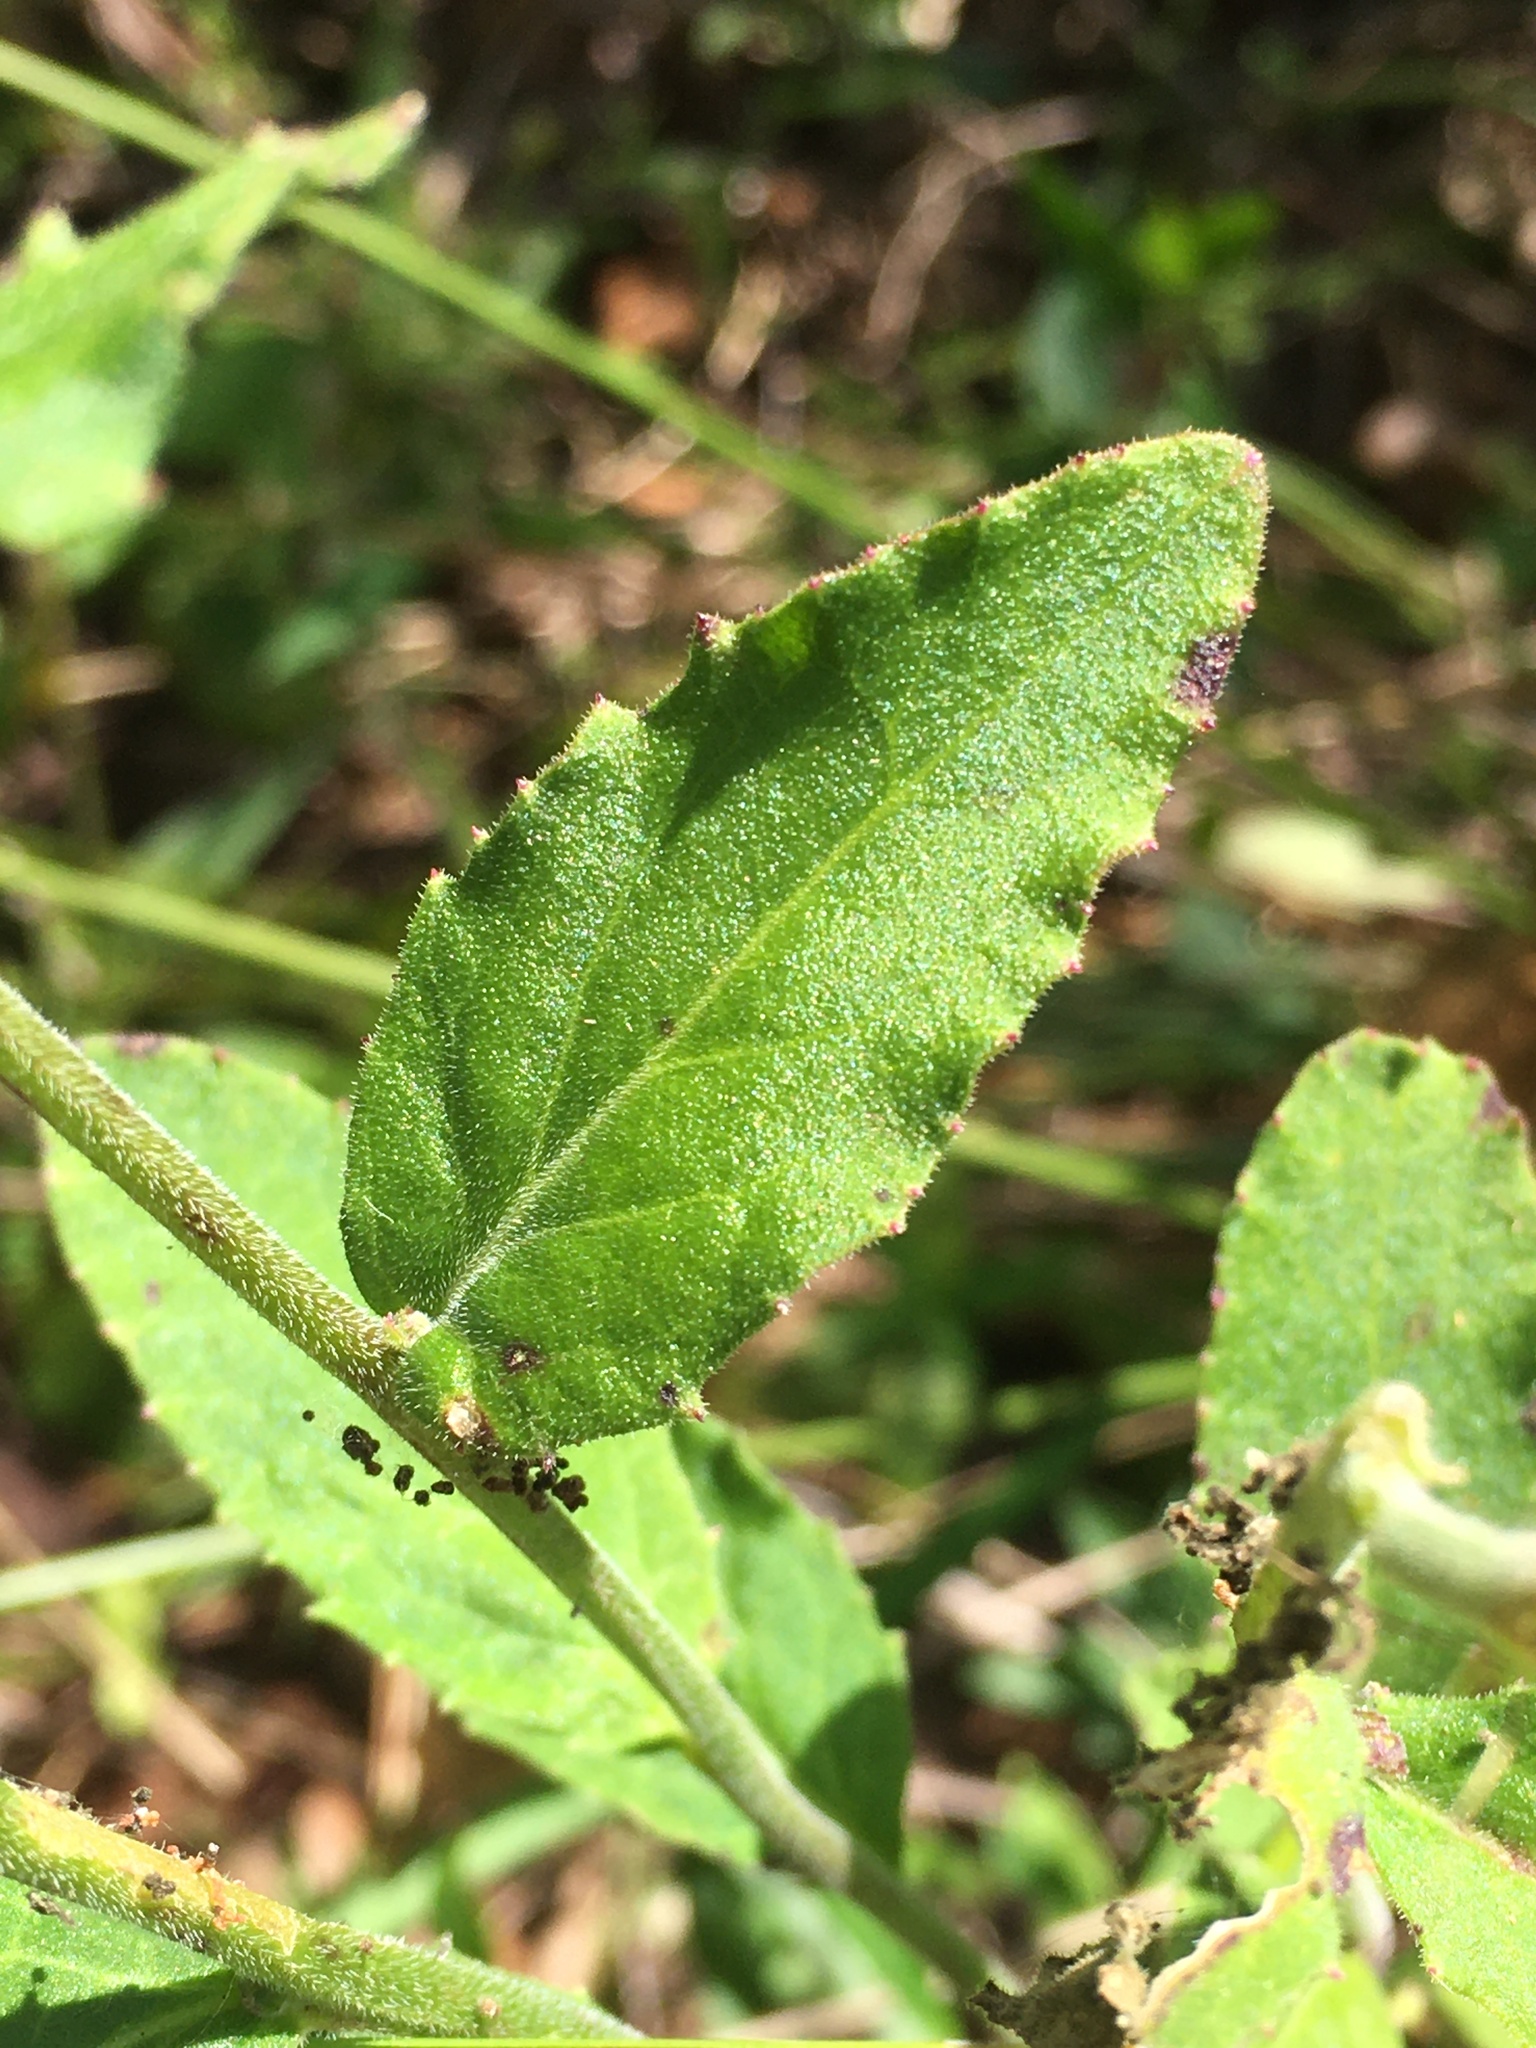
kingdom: Plantae
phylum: Tracheophyta
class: Magnoliopsida
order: Asterales
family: Campanulaceae
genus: Lobelia
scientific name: Lobelia puberula
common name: Purple dewdrop
